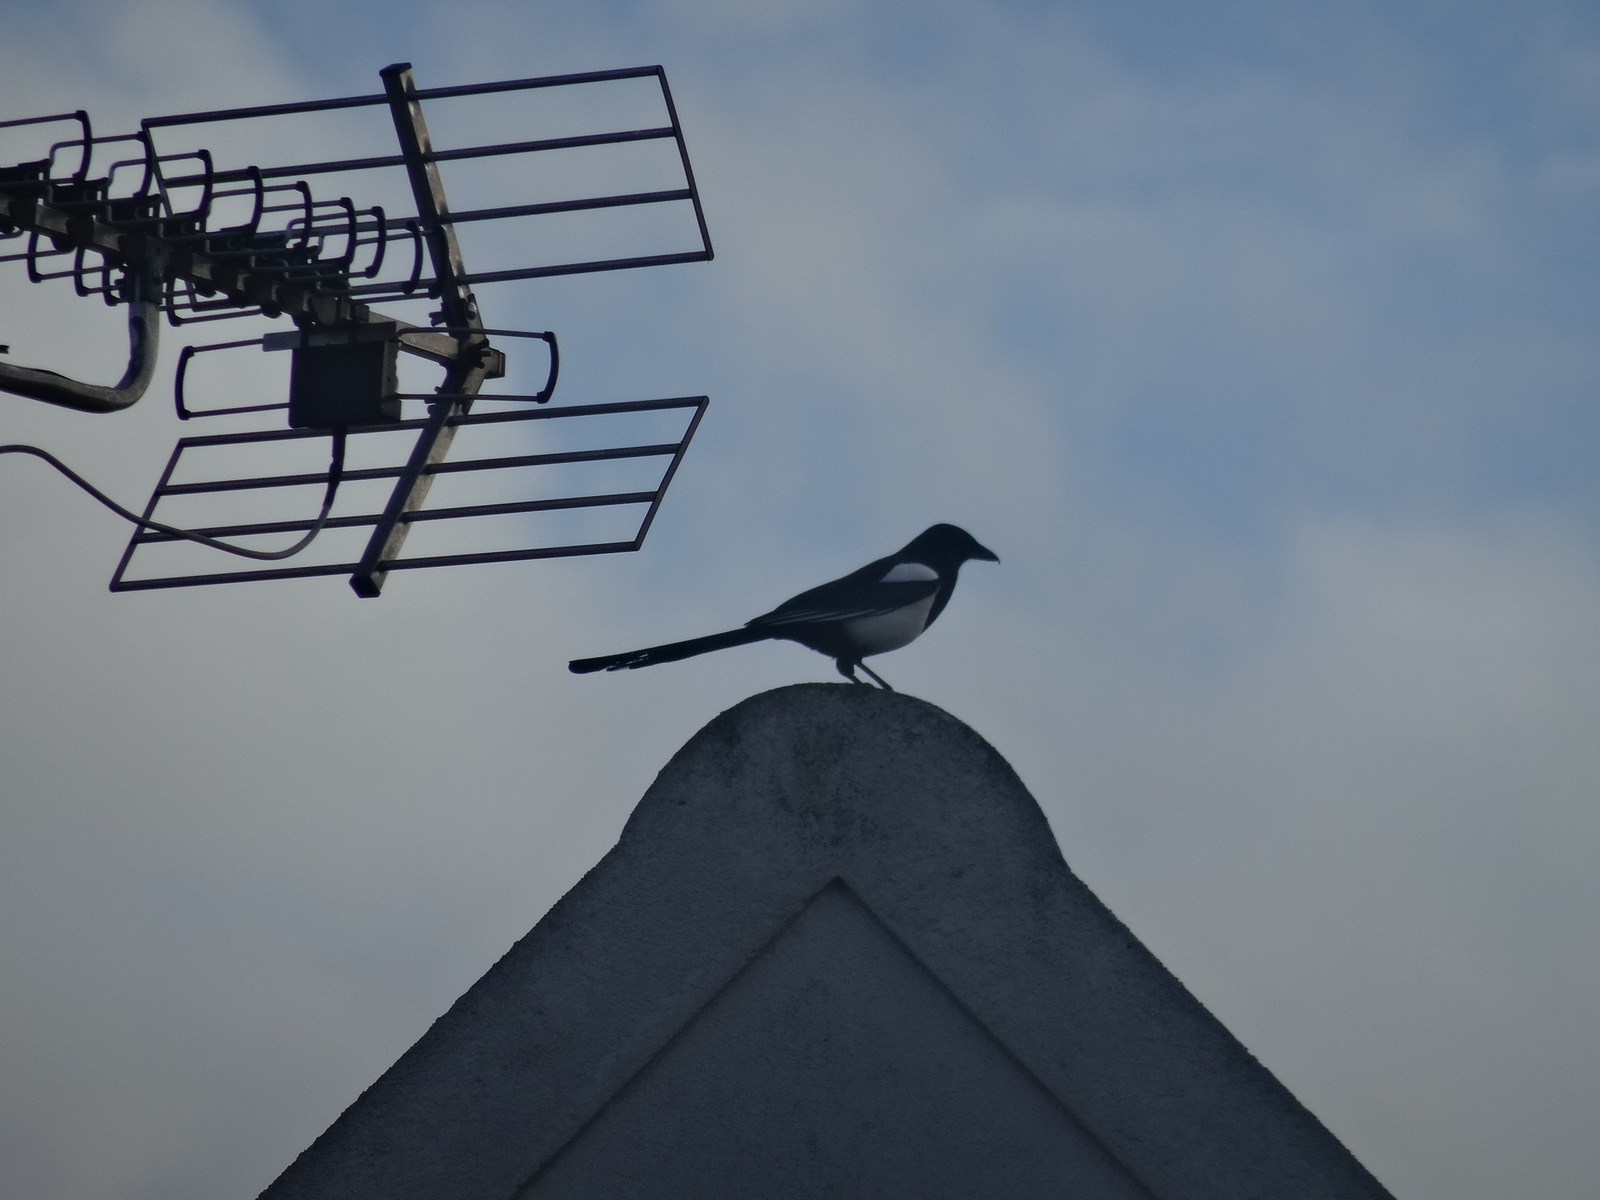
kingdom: Animalia
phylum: Chordata
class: Aves
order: Passeriformes
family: Corvidae
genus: Pica
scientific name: Pica pica
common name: Eurasian magpie
